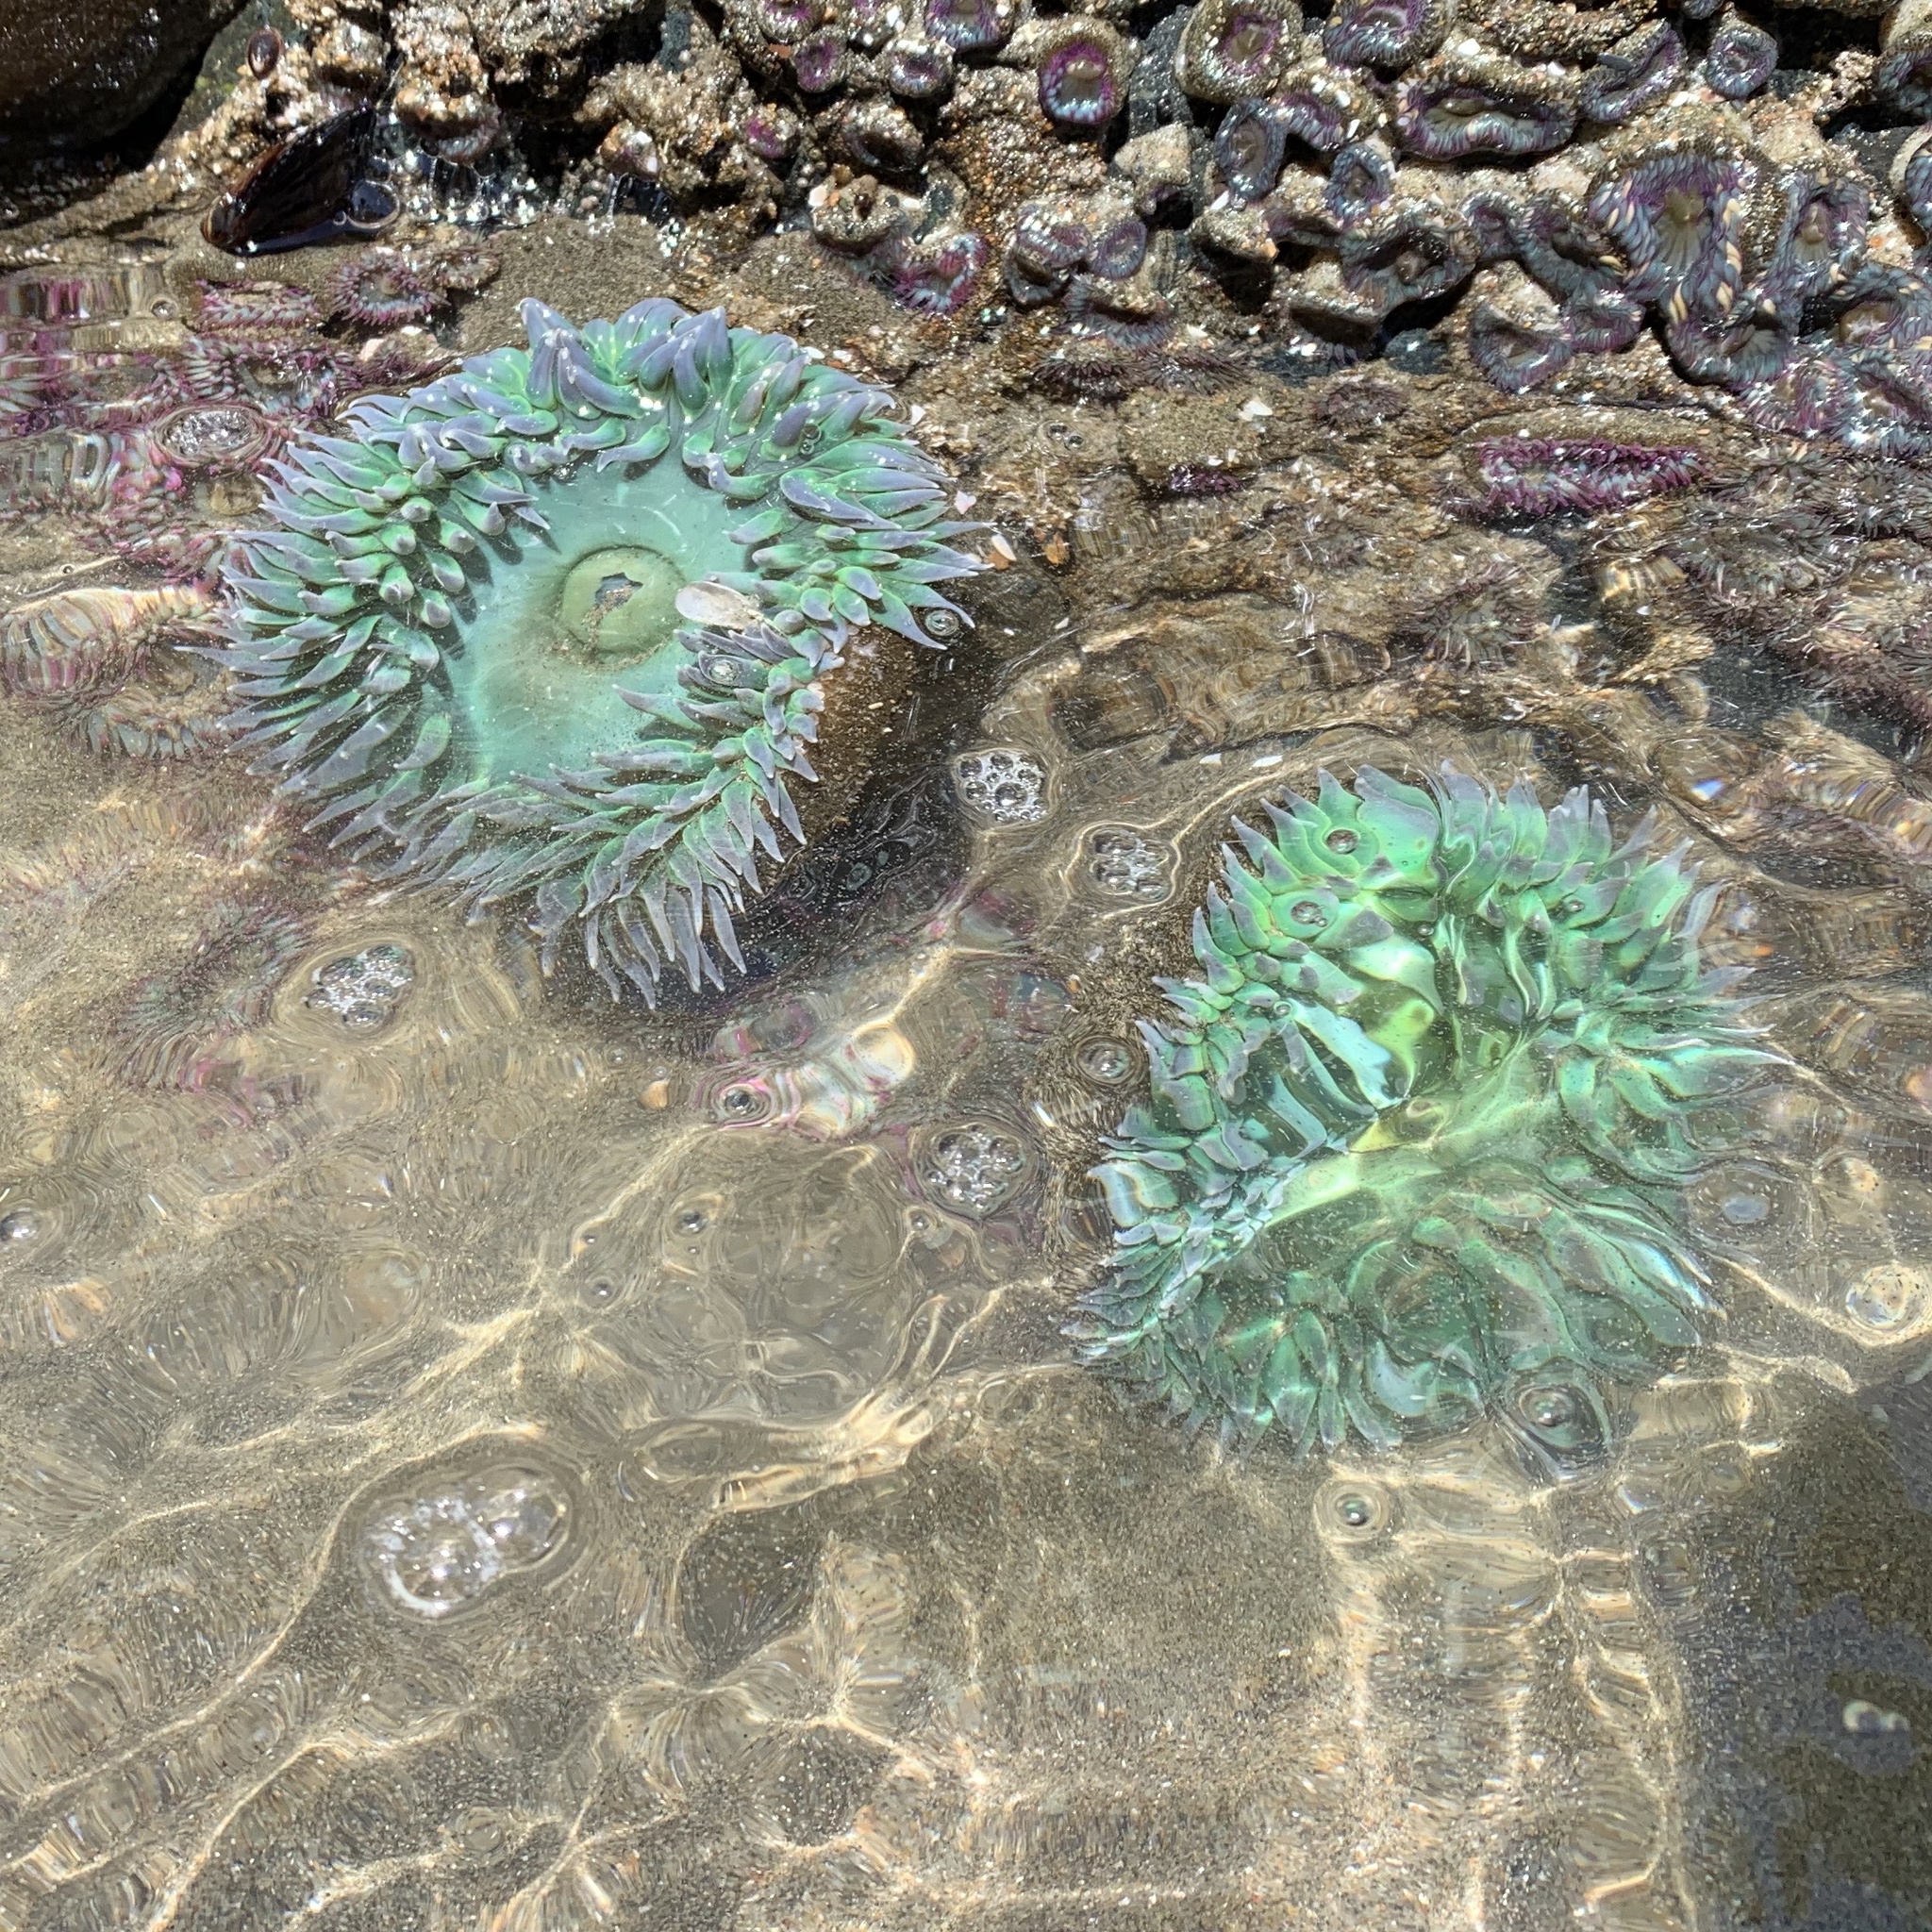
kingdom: Animalia
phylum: Cnidaria
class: Anthozoa
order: Actiniaria
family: Actiniidae
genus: Anthopleura
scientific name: Anthopleura xanthogrammica
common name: Giant green anemone
